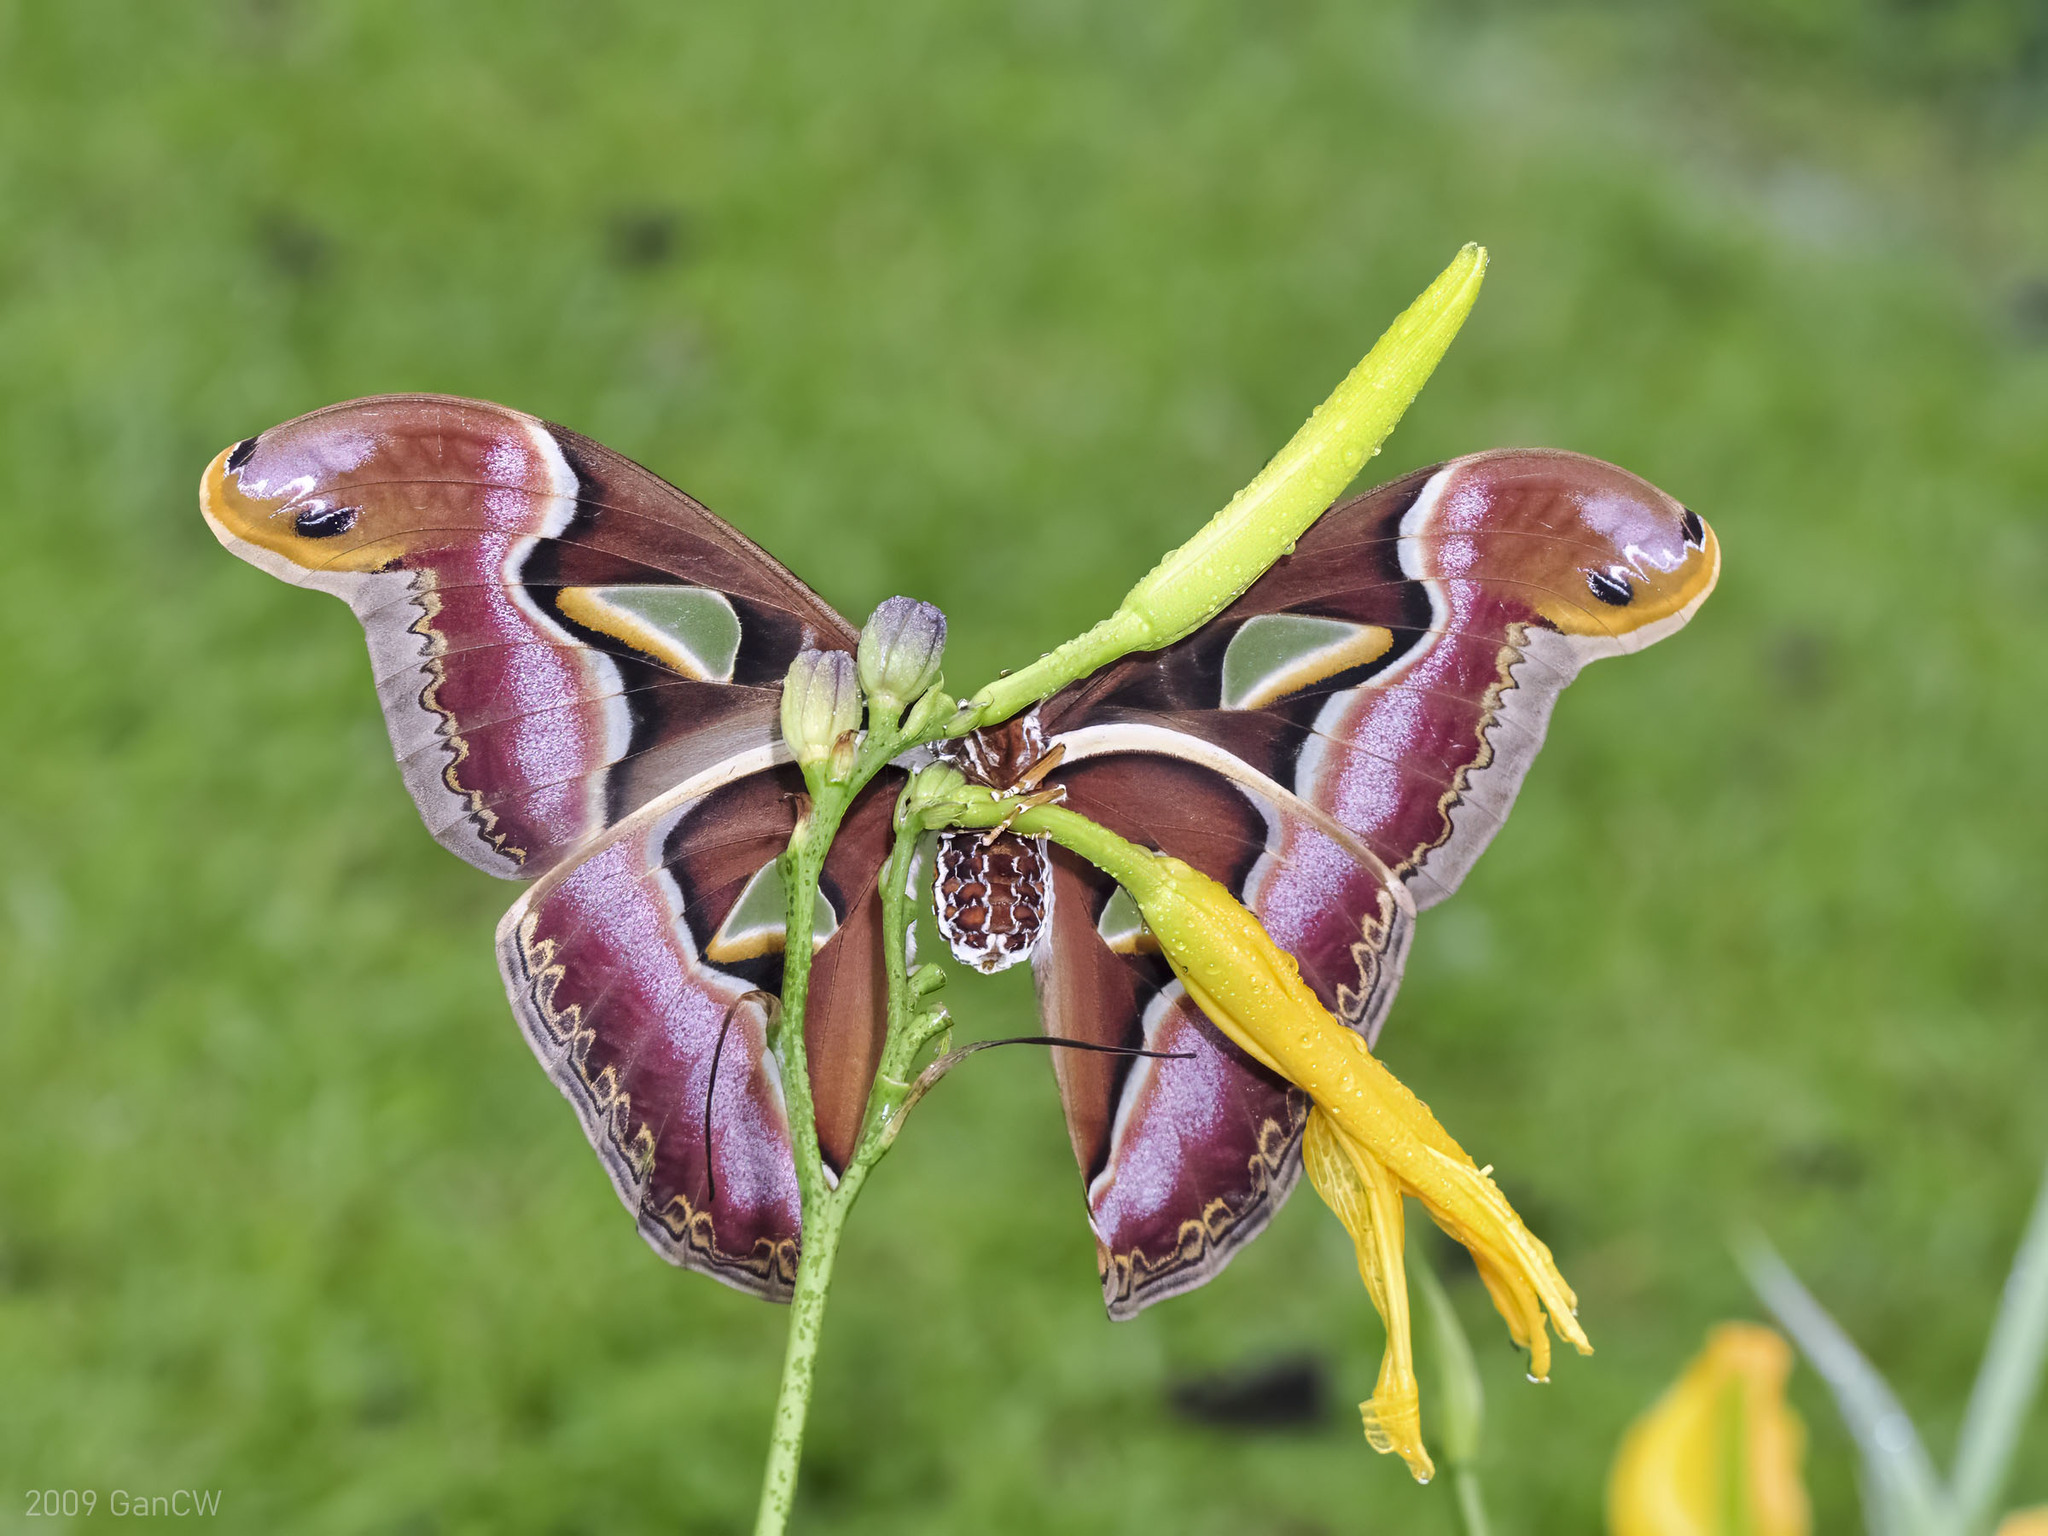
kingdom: Animalia
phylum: Arthropoda
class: Insecta
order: Lepidoptera
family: Saturniidae
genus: Archaeoattacus
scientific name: Archaeoattacus edwardsii
